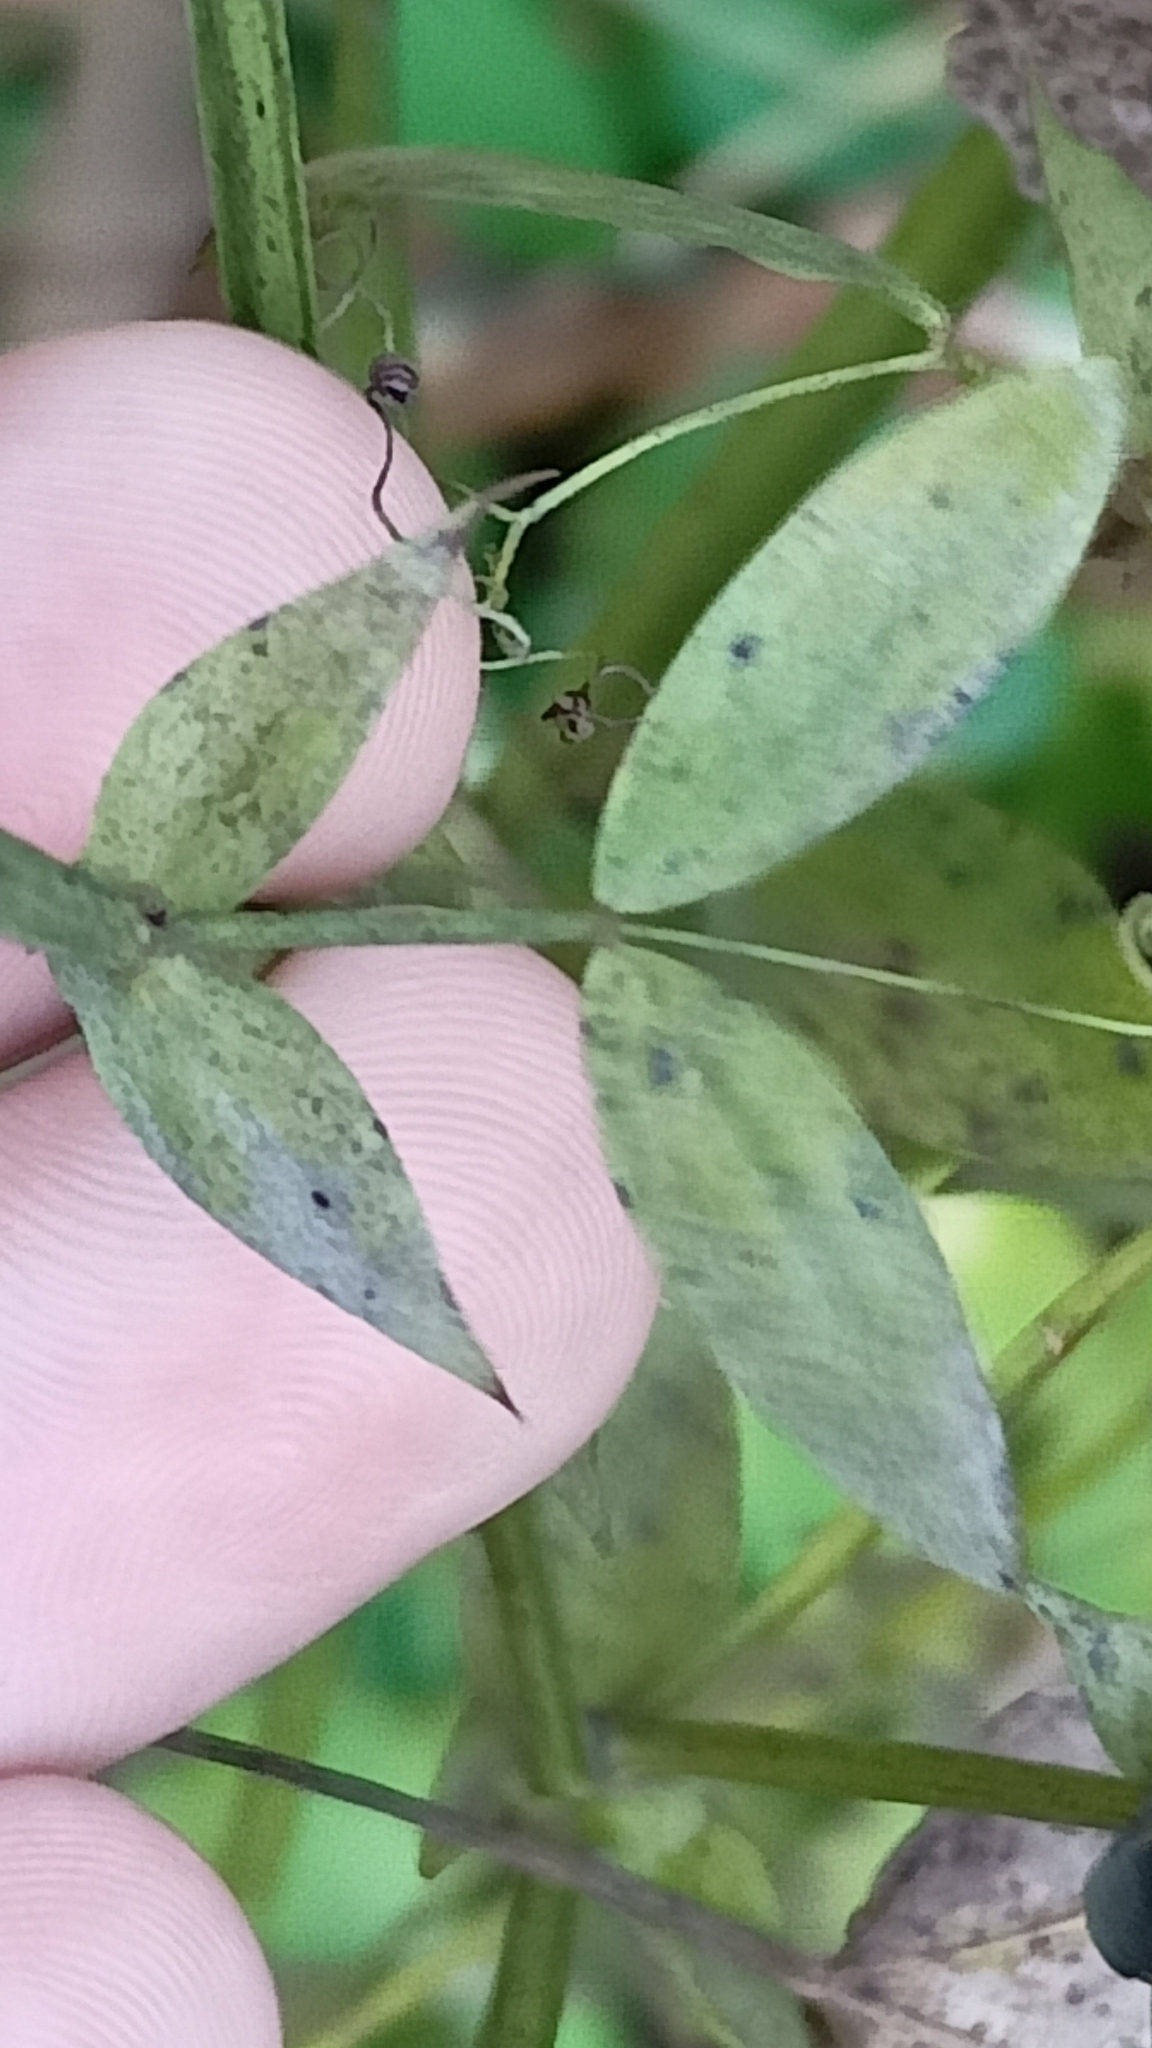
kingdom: Plantae
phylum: Tracheophyta
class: Magnoliopsida
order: Fabales
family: Fabaceae
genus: Lathyrus
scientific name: Lathyrus pratensis
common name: Meadow vetchling
